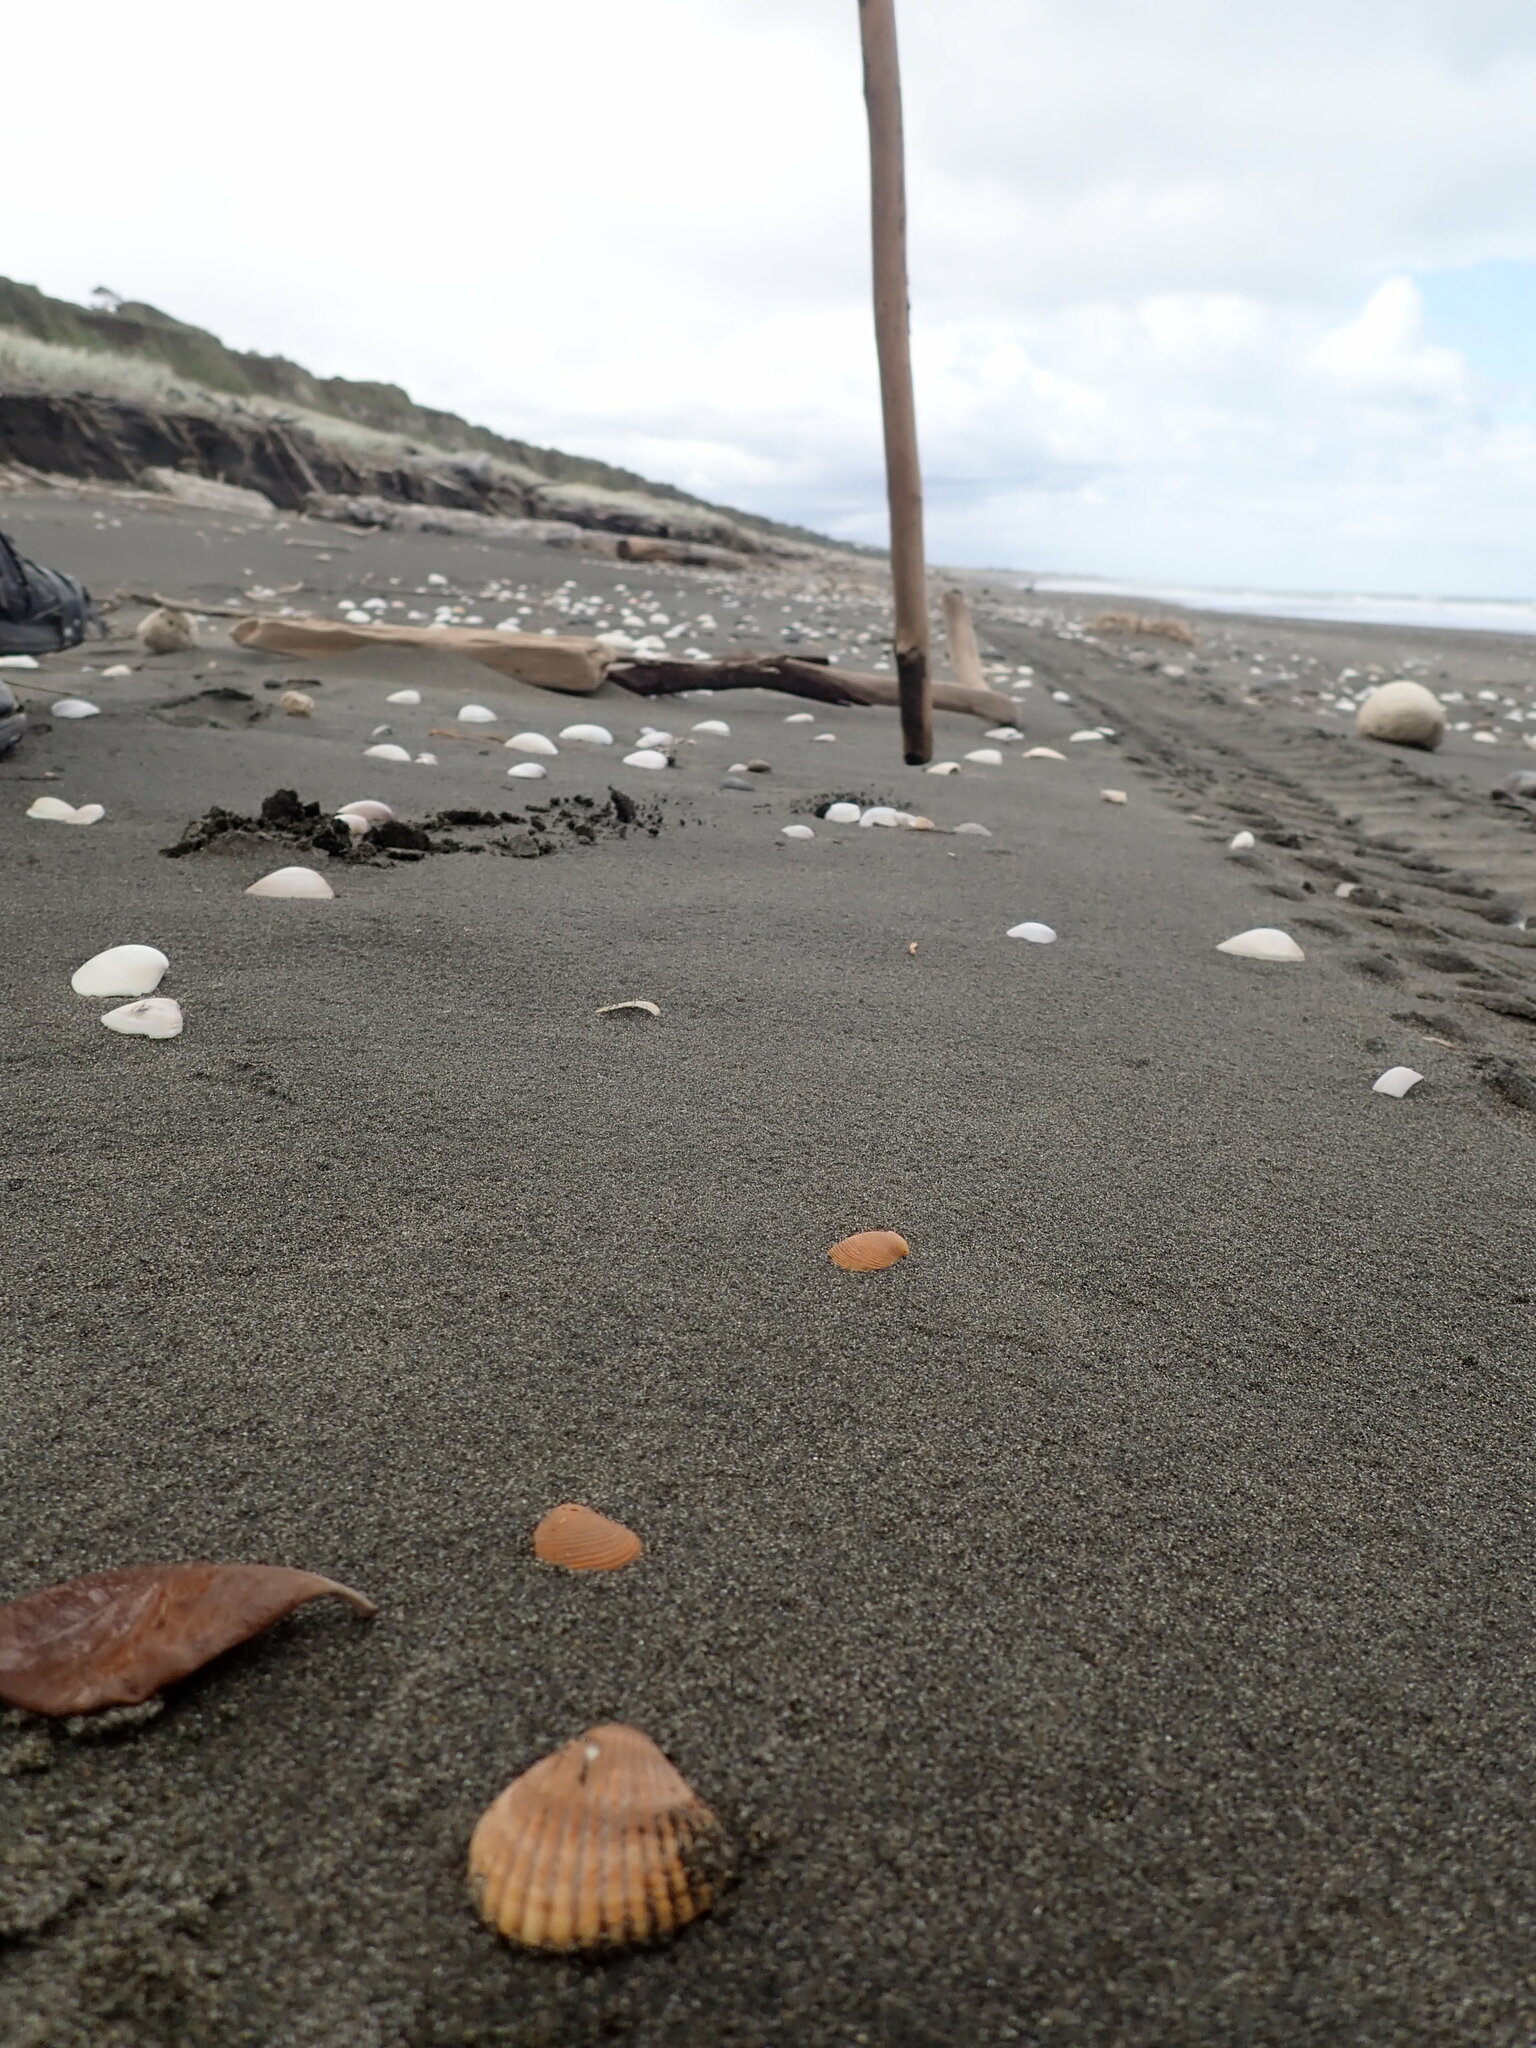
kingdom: Animalia
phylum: Mollusca
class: Bivalvia
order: Carditida
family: Carditidae
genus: Purpurocardia
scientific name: Purpurocardia purpurata
